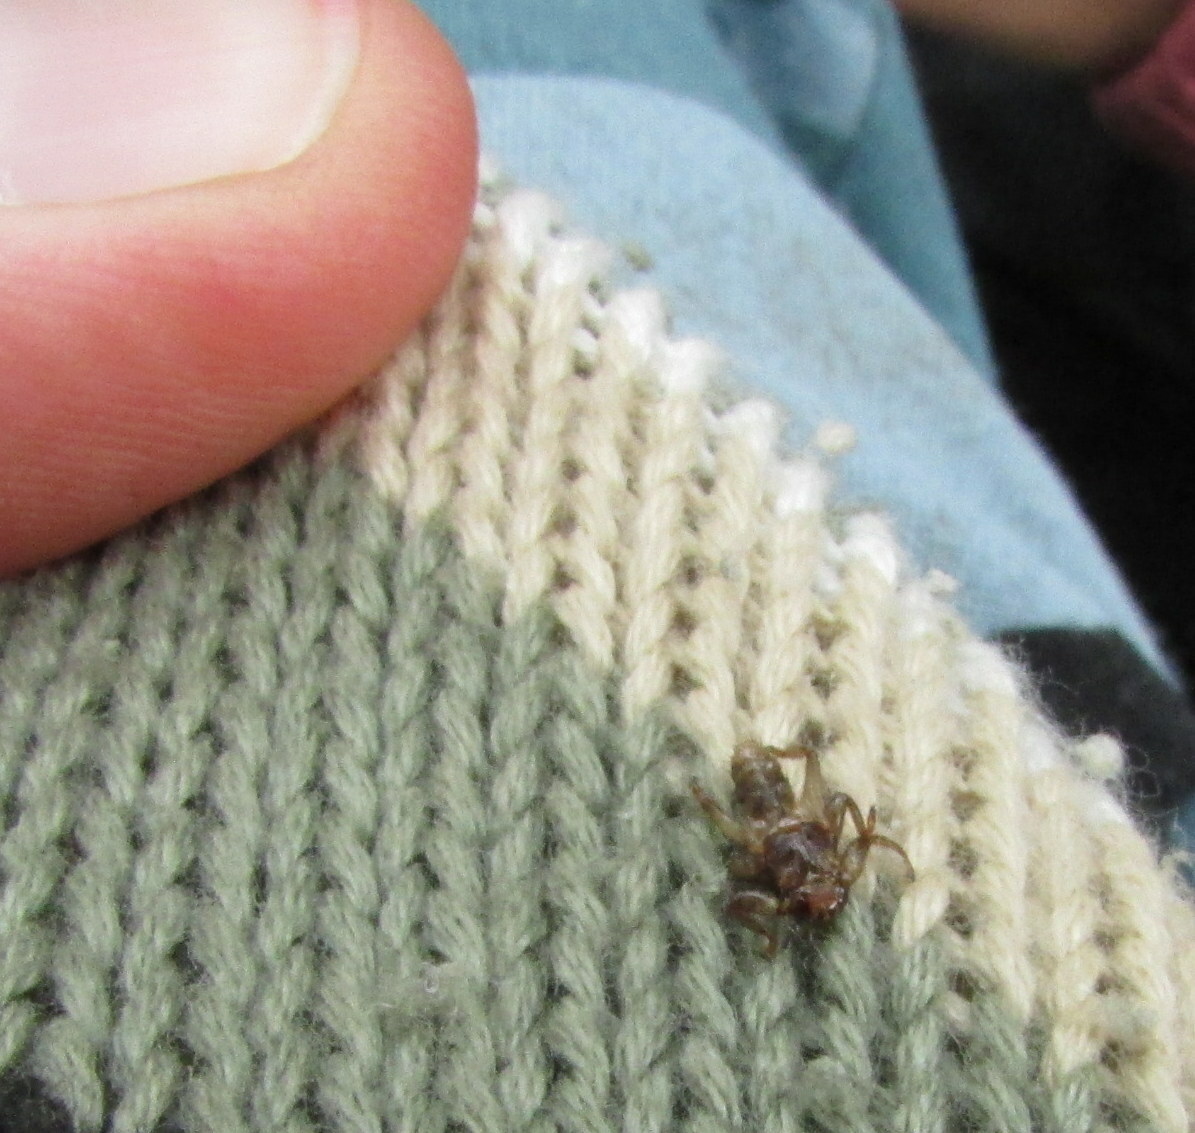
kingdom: Animalia
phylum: Arthropoda
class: Insecta
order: Diptera
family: Hippoboscidae
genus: Lipoptena
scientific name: Lipoptena cervi
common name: Deer ked
